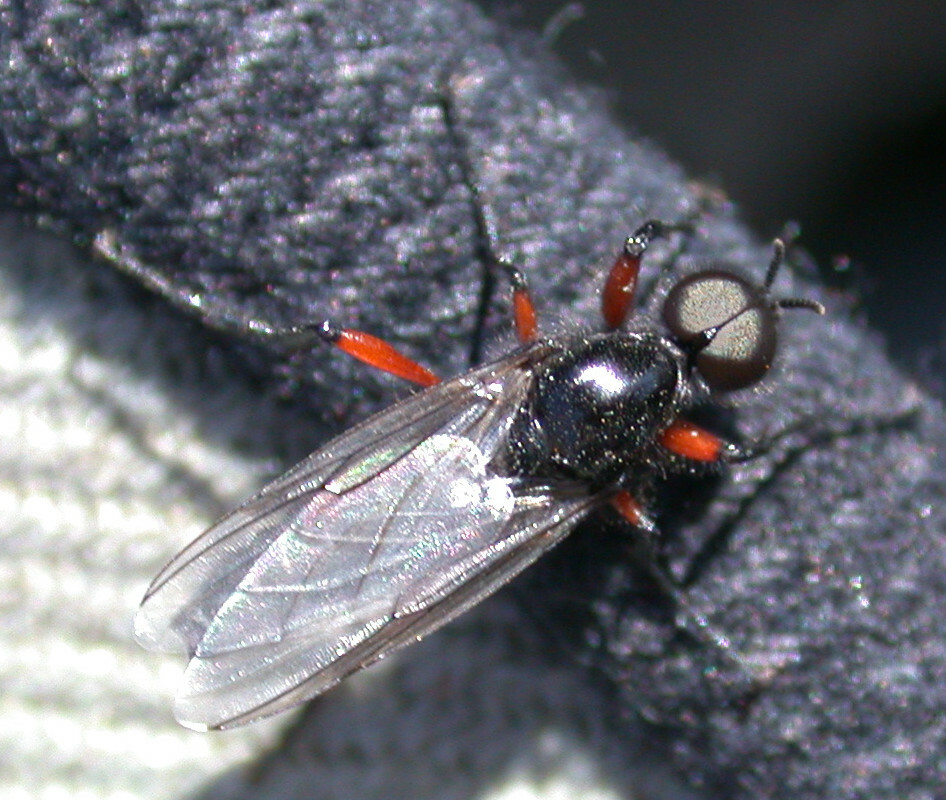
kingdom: Animalia
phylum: Arthropoda
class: Insecta
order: Diptera
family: Bibionidae
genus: Bibio
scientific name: Bibio pomonae
